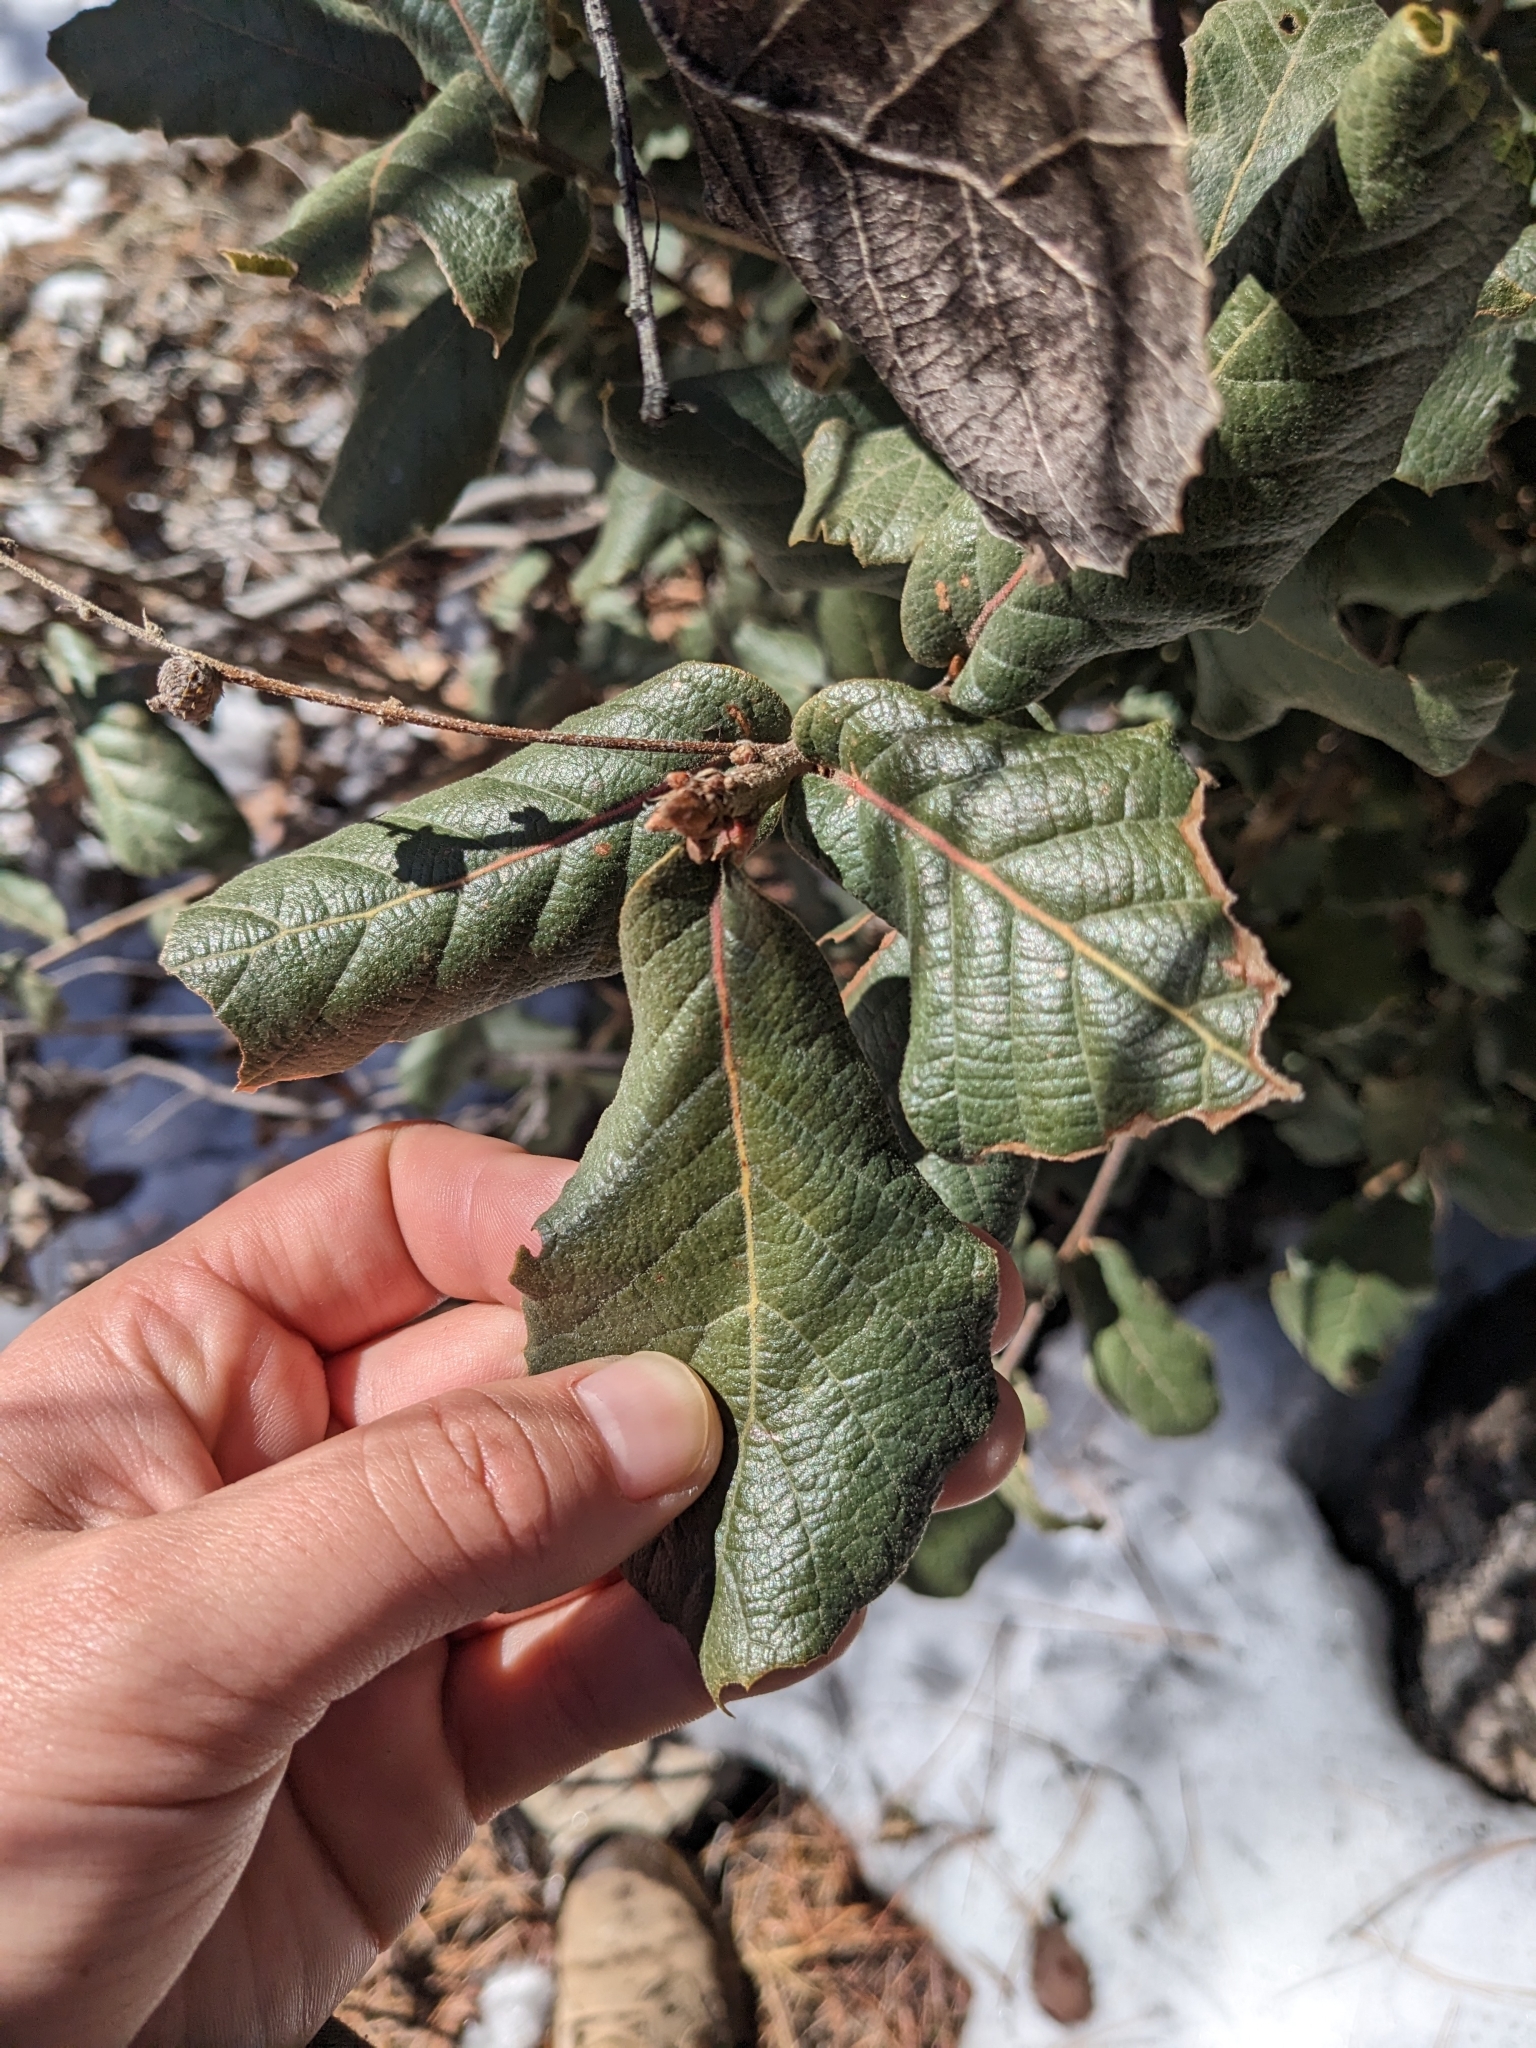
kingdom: Plantae
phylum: Tracheophyta
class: Magnoliopsida
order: Fagales
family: Fagaceae
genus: Quercus
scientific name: Quercus rugosa
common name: Netleaf oak
